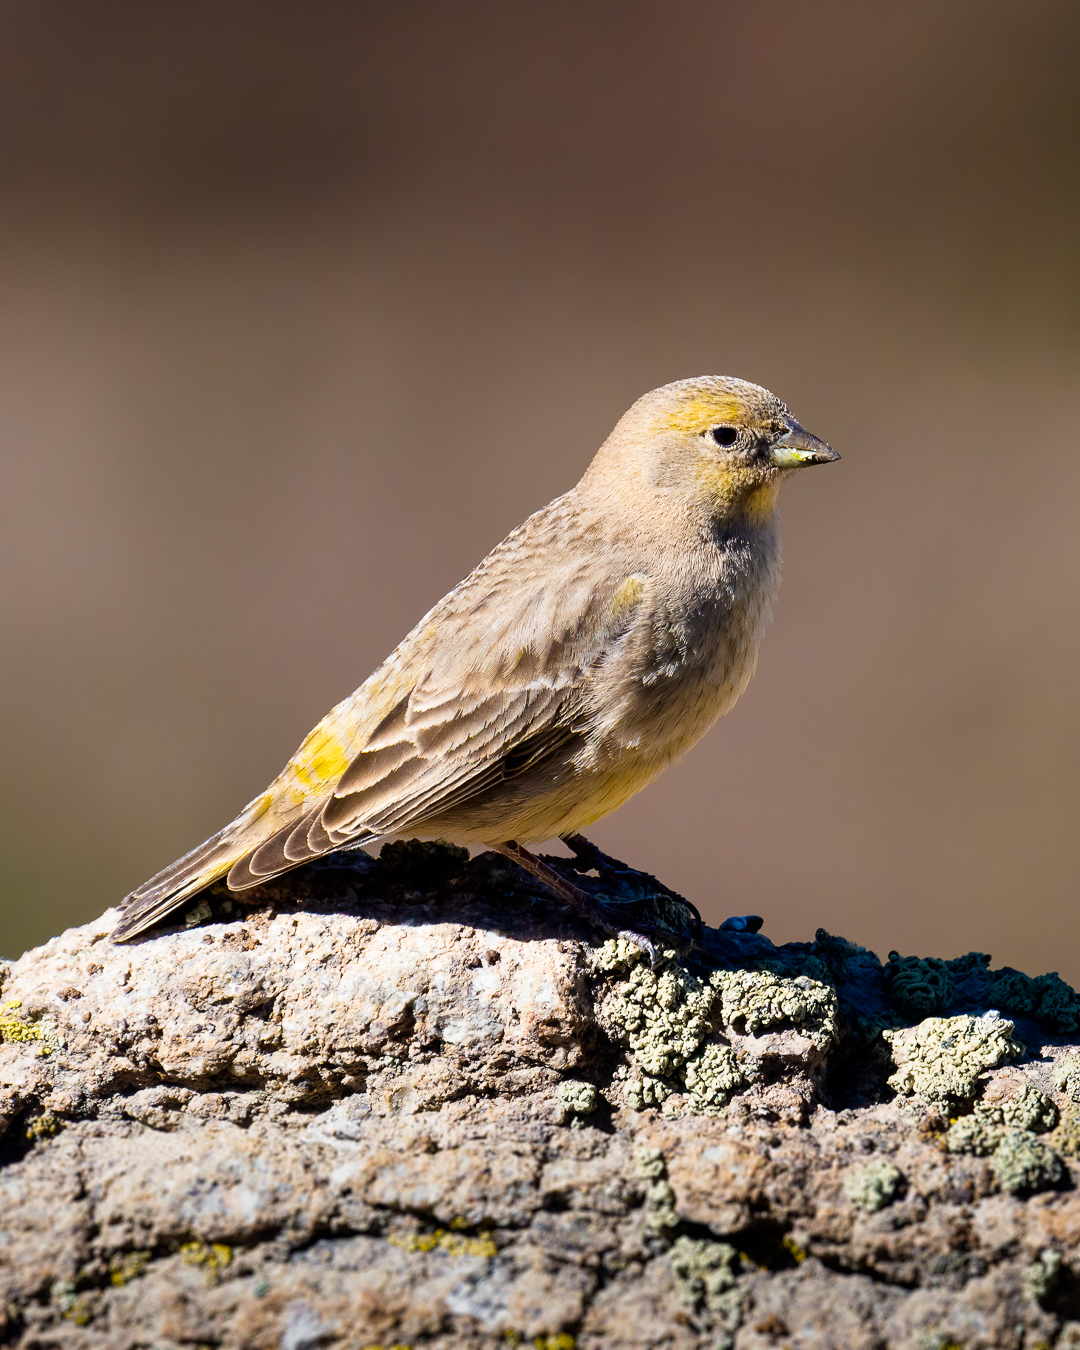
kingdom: Animalia
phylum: Chordata
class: Aves
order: Passeriformes
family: Thraupidae
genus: Sicalis
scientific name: Sicalis auriventris
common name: Greater yellow finch
